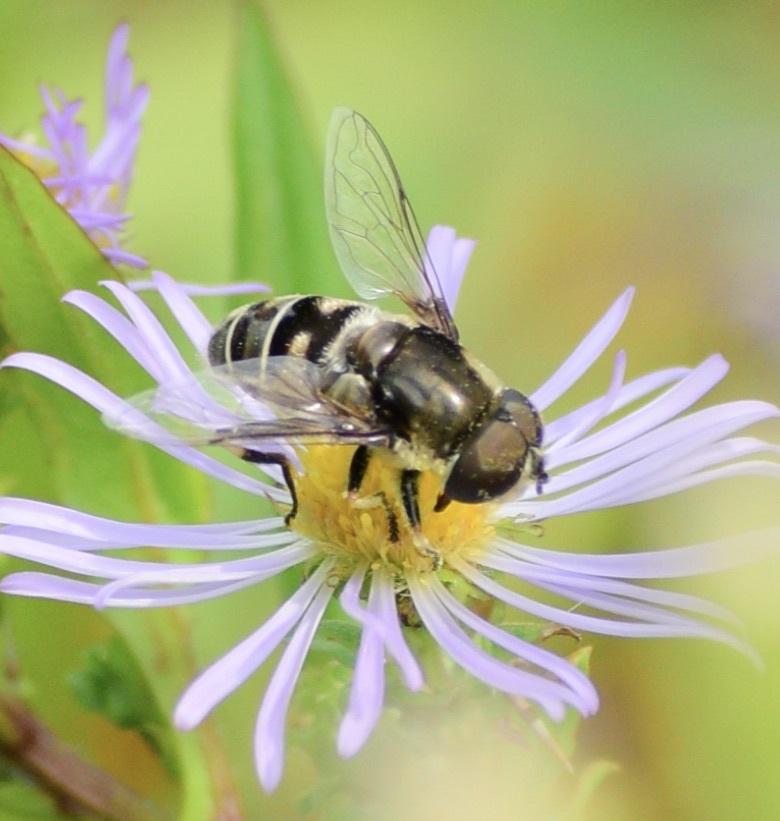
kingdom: Animalia
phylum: Arthropoda
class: Insecta
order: Diptera
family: Syrphidae
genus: Eristalis
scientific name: Eristalis dimidiata
